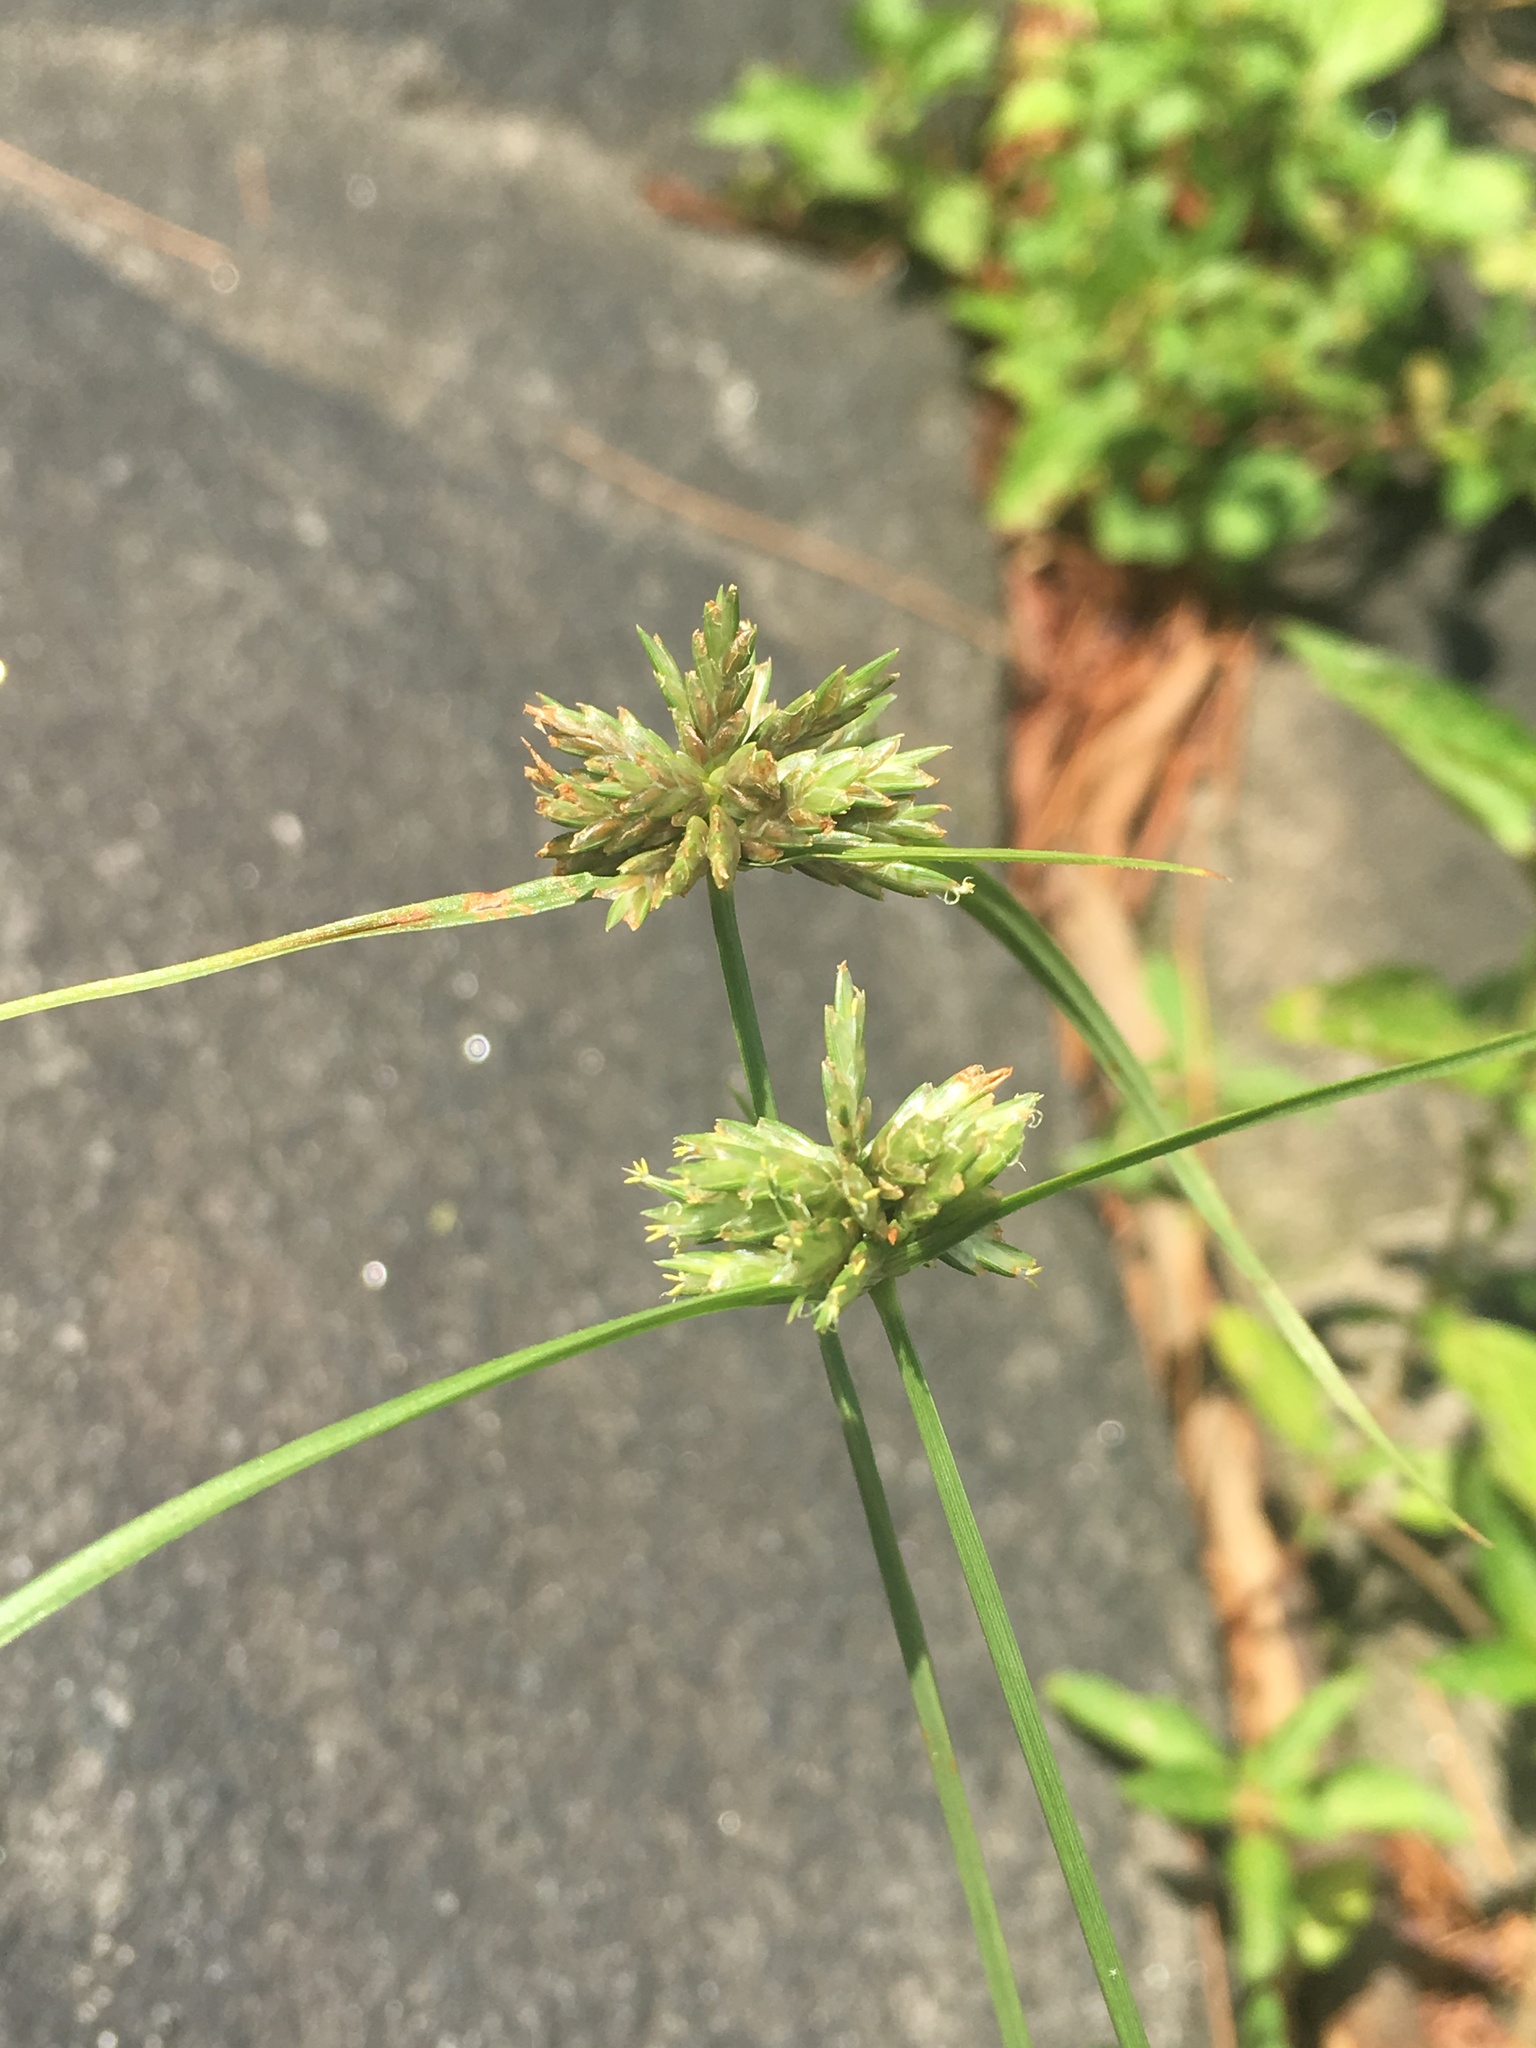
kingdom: Plantae
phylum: Tracheophyta
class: Liliopsida
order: Poales
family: Cyperaceae
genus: Cyperus
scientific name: Cyperus lupulinus
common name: Great plains flatsedge
